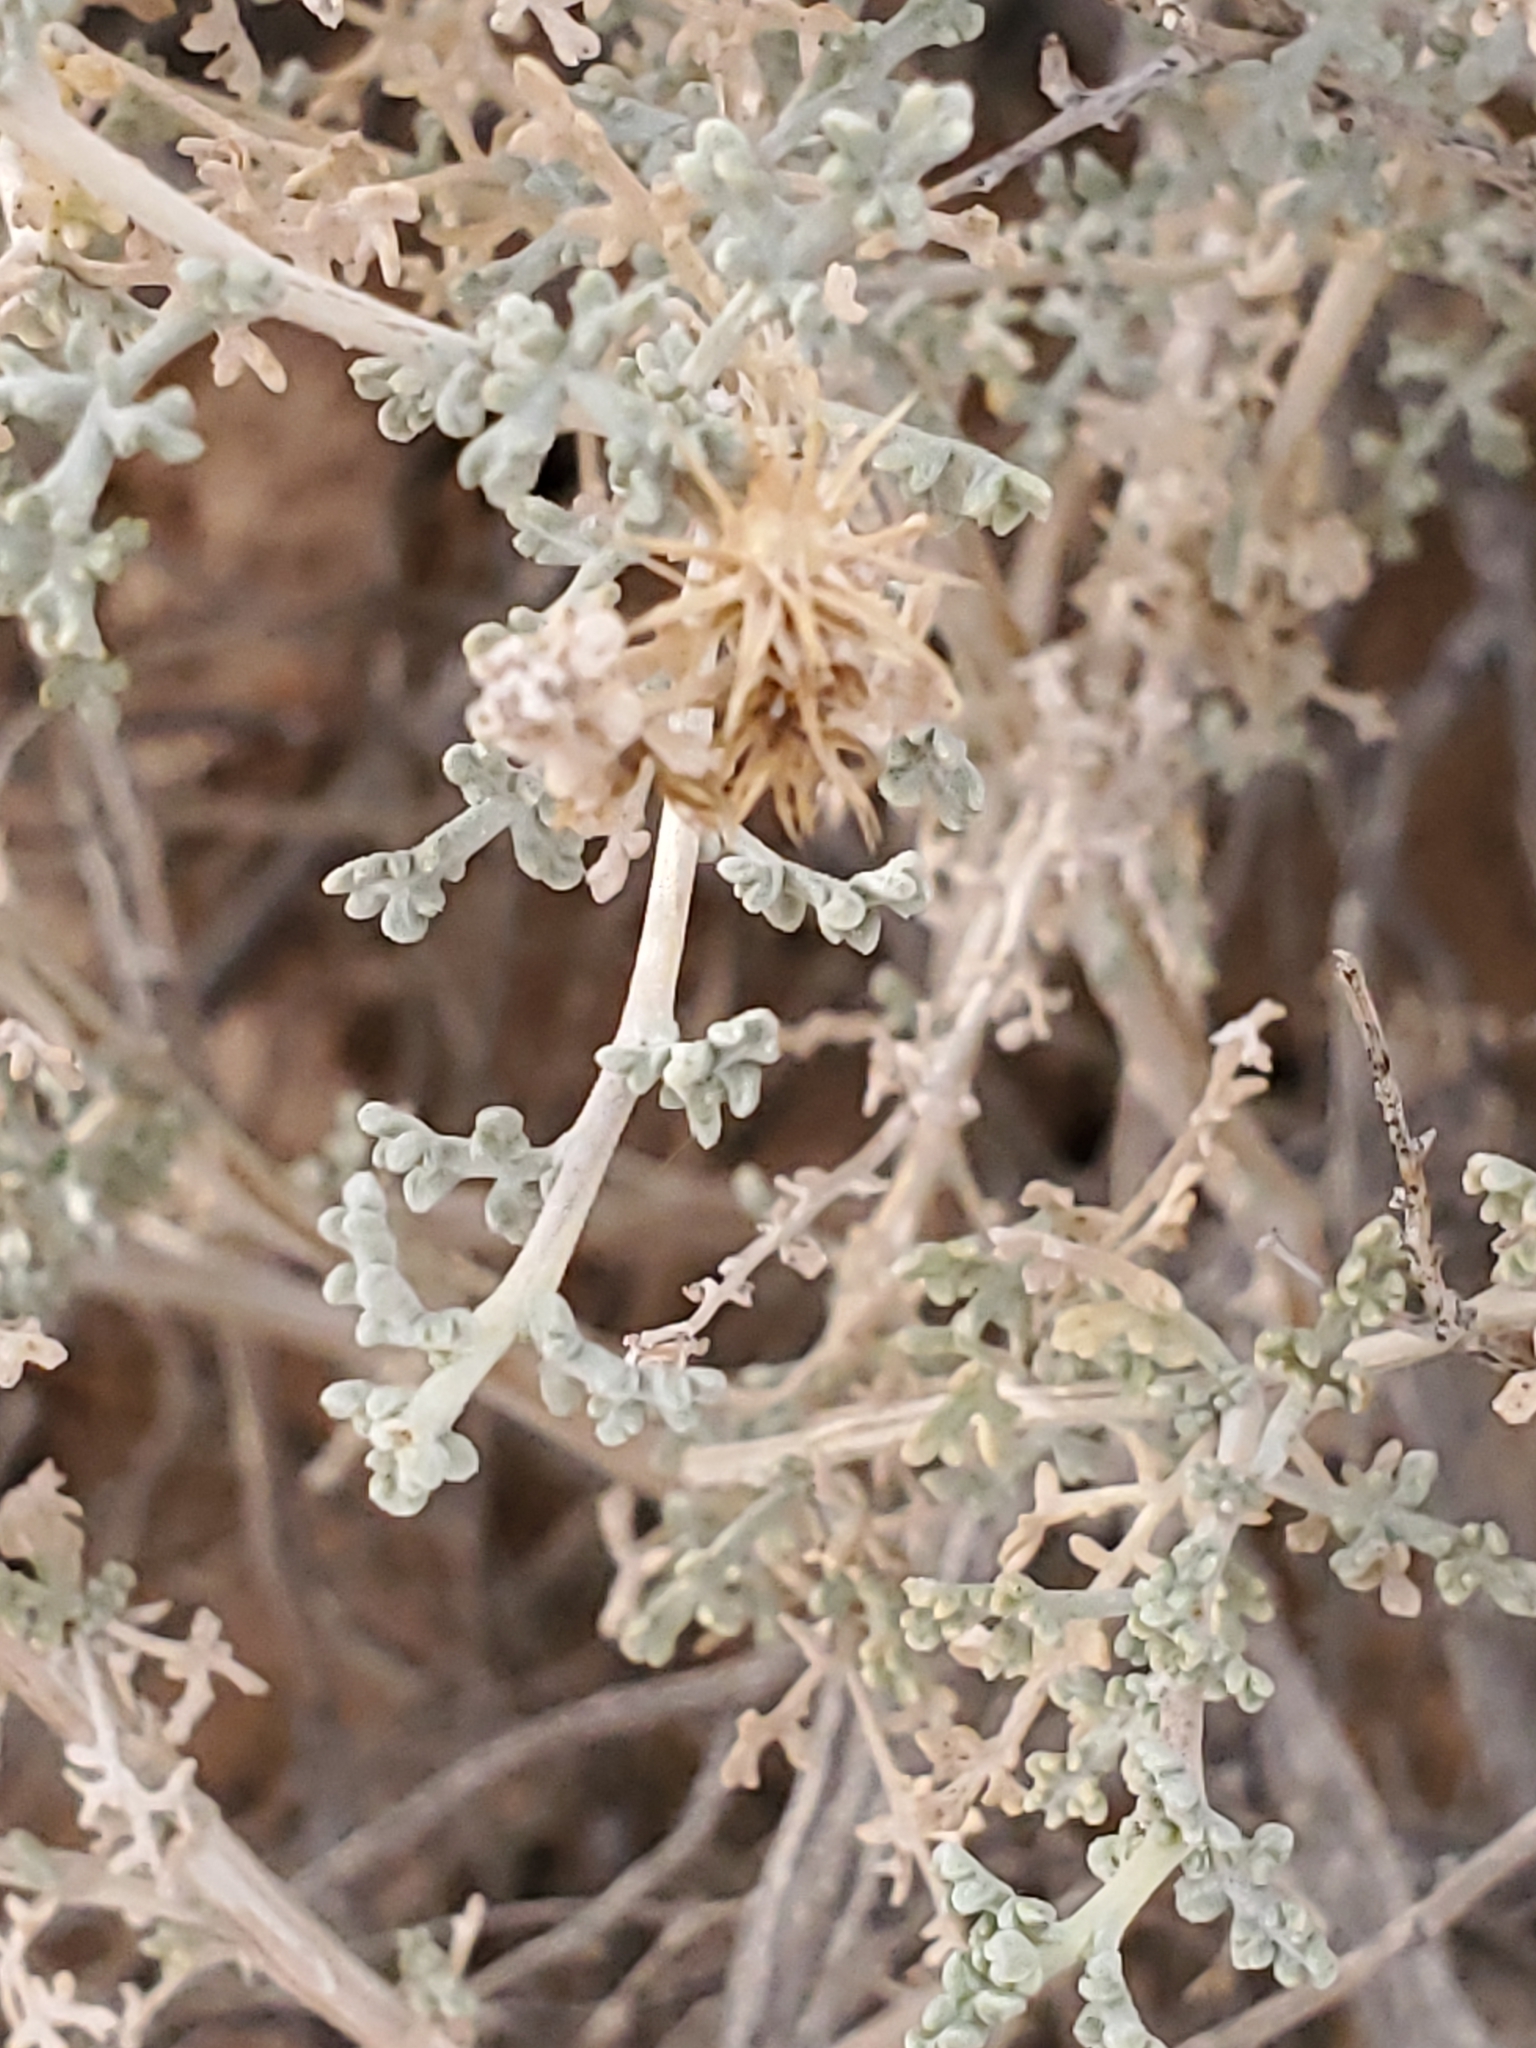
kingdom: Plantae
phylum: Tracheophyta
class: Magnoliopsida
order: Asterales
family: Asteraceae
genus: Ambrosia
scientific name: Ambrosia dumosa
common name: Bur-sage
